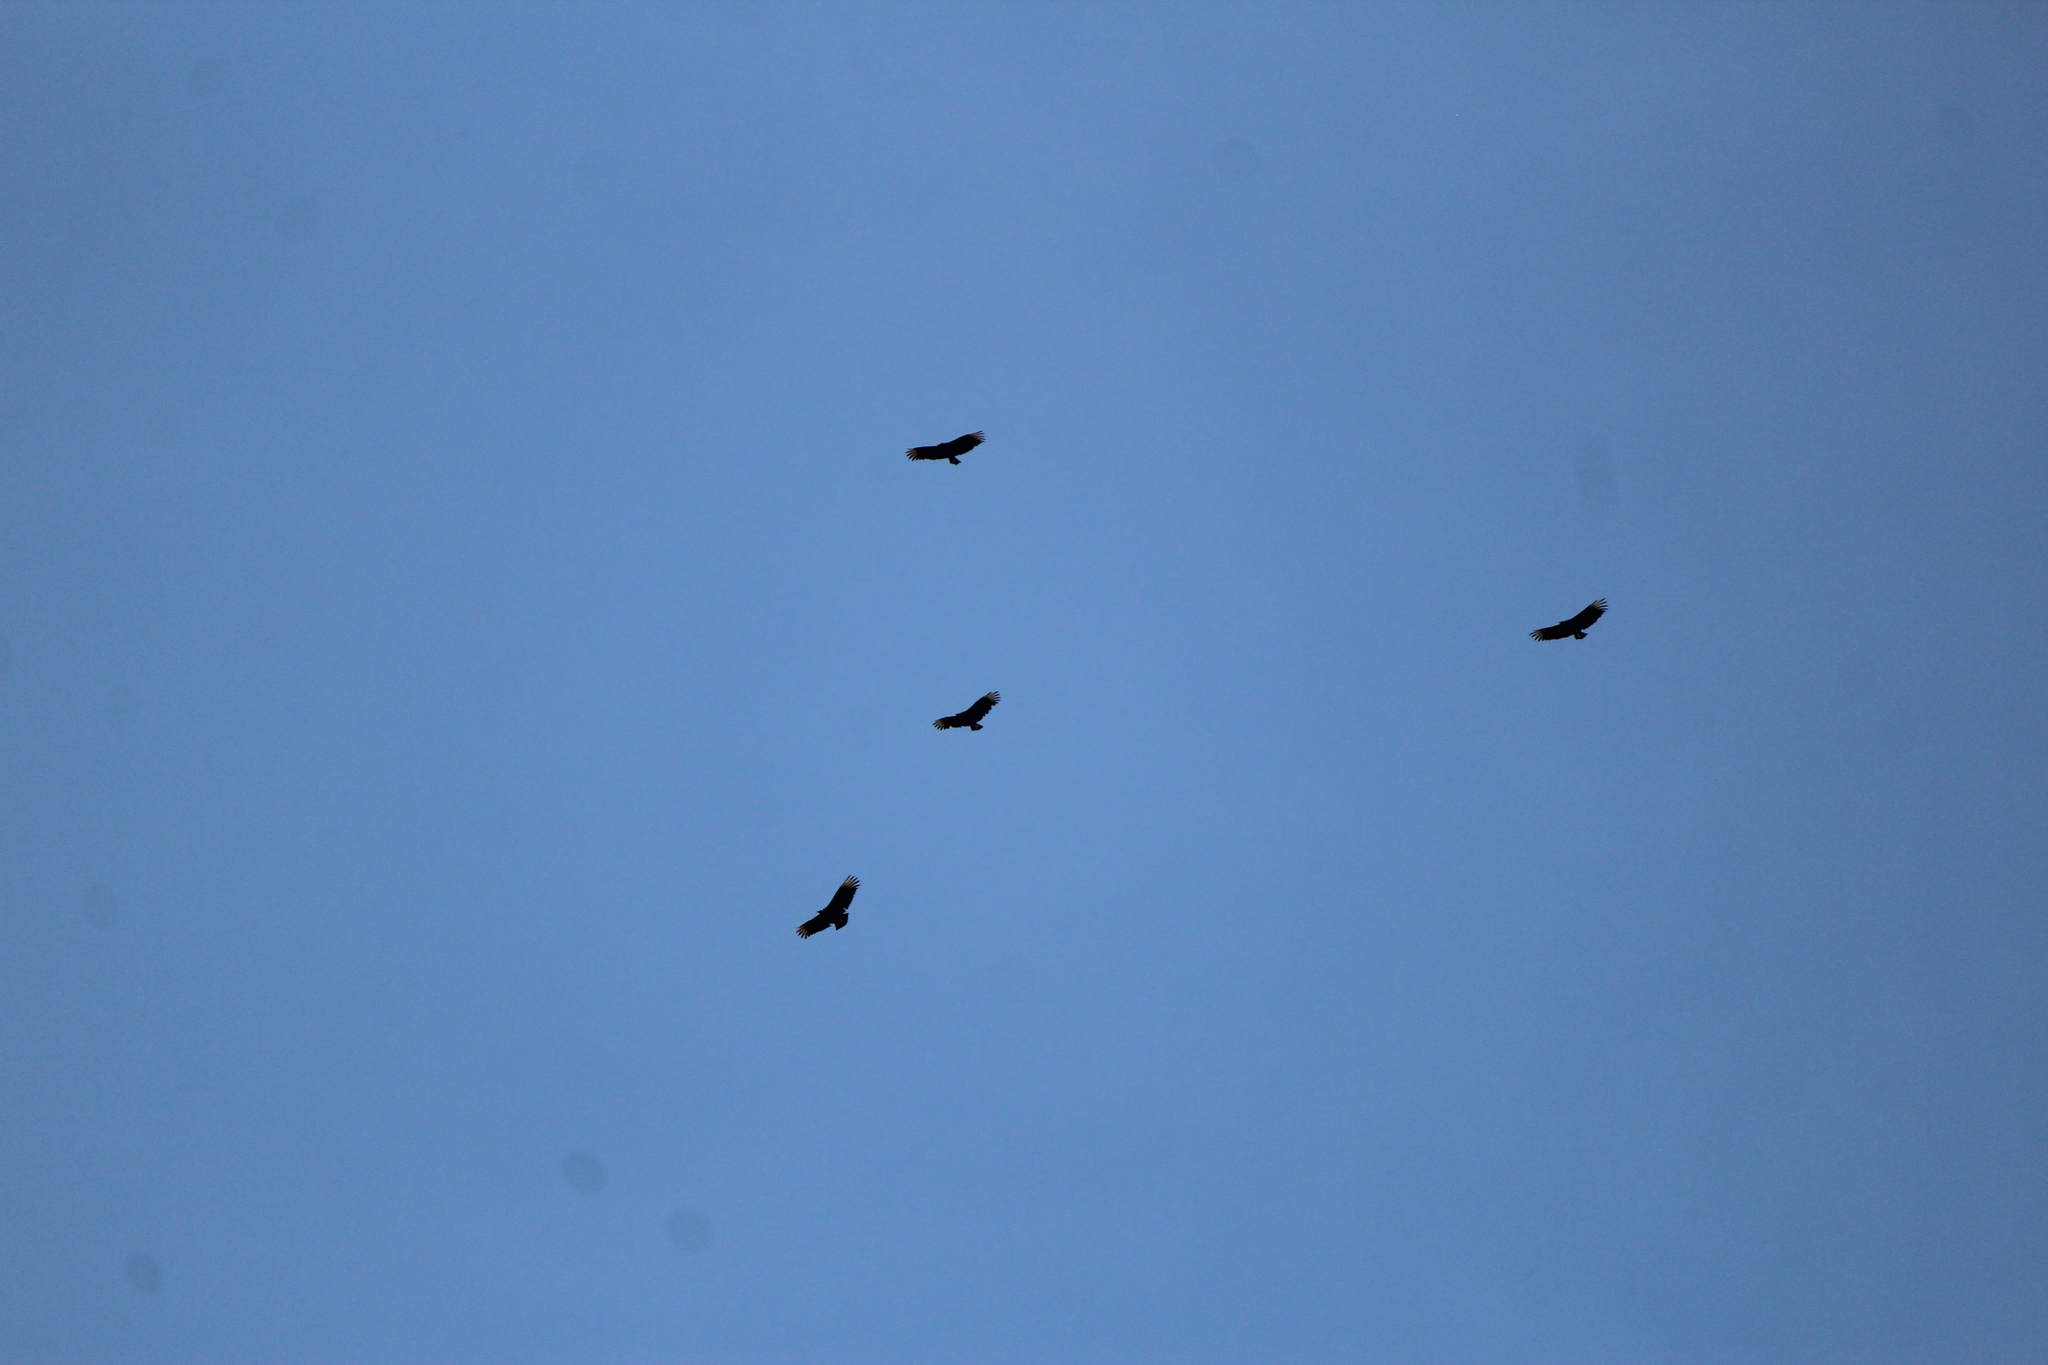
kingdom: Animalia
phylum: Chordata
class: Aves
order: Accipitriformes
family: Cathartidae
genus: Coragyps
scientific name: Coragyps atratus
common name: Black vulture
